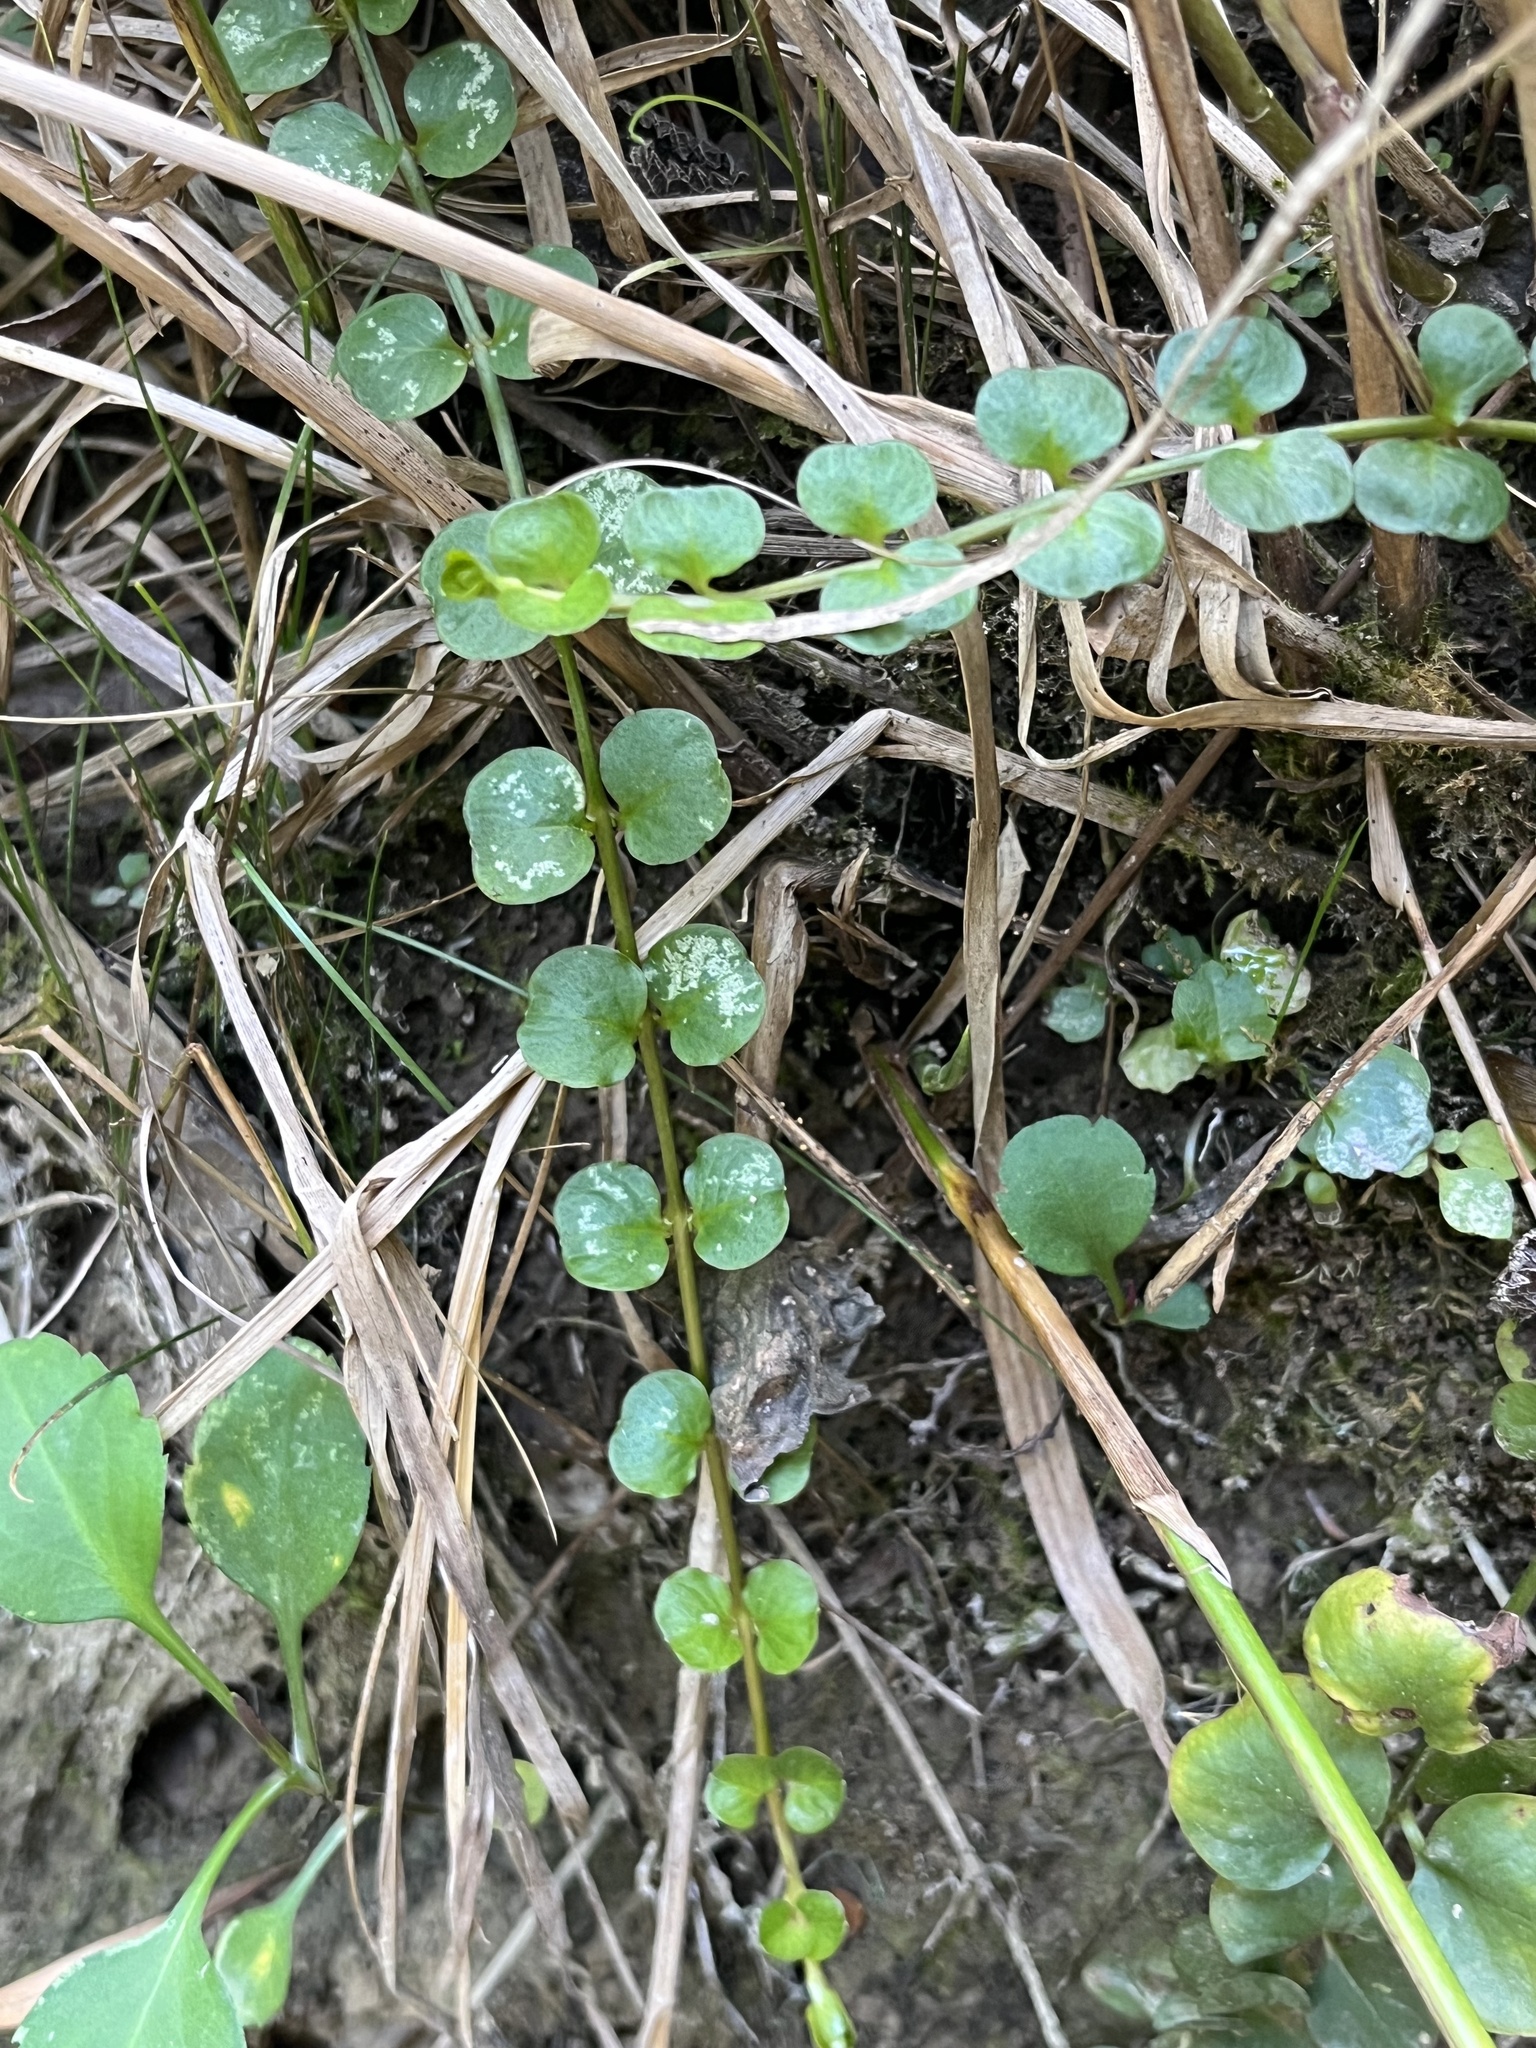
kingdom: Plantae
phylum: Tracheophyta
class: Magnoliopsida
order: Ericales
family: Primulaceae
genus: Lysimachia
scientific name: Lysimachia nummularia
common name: Moneywort
